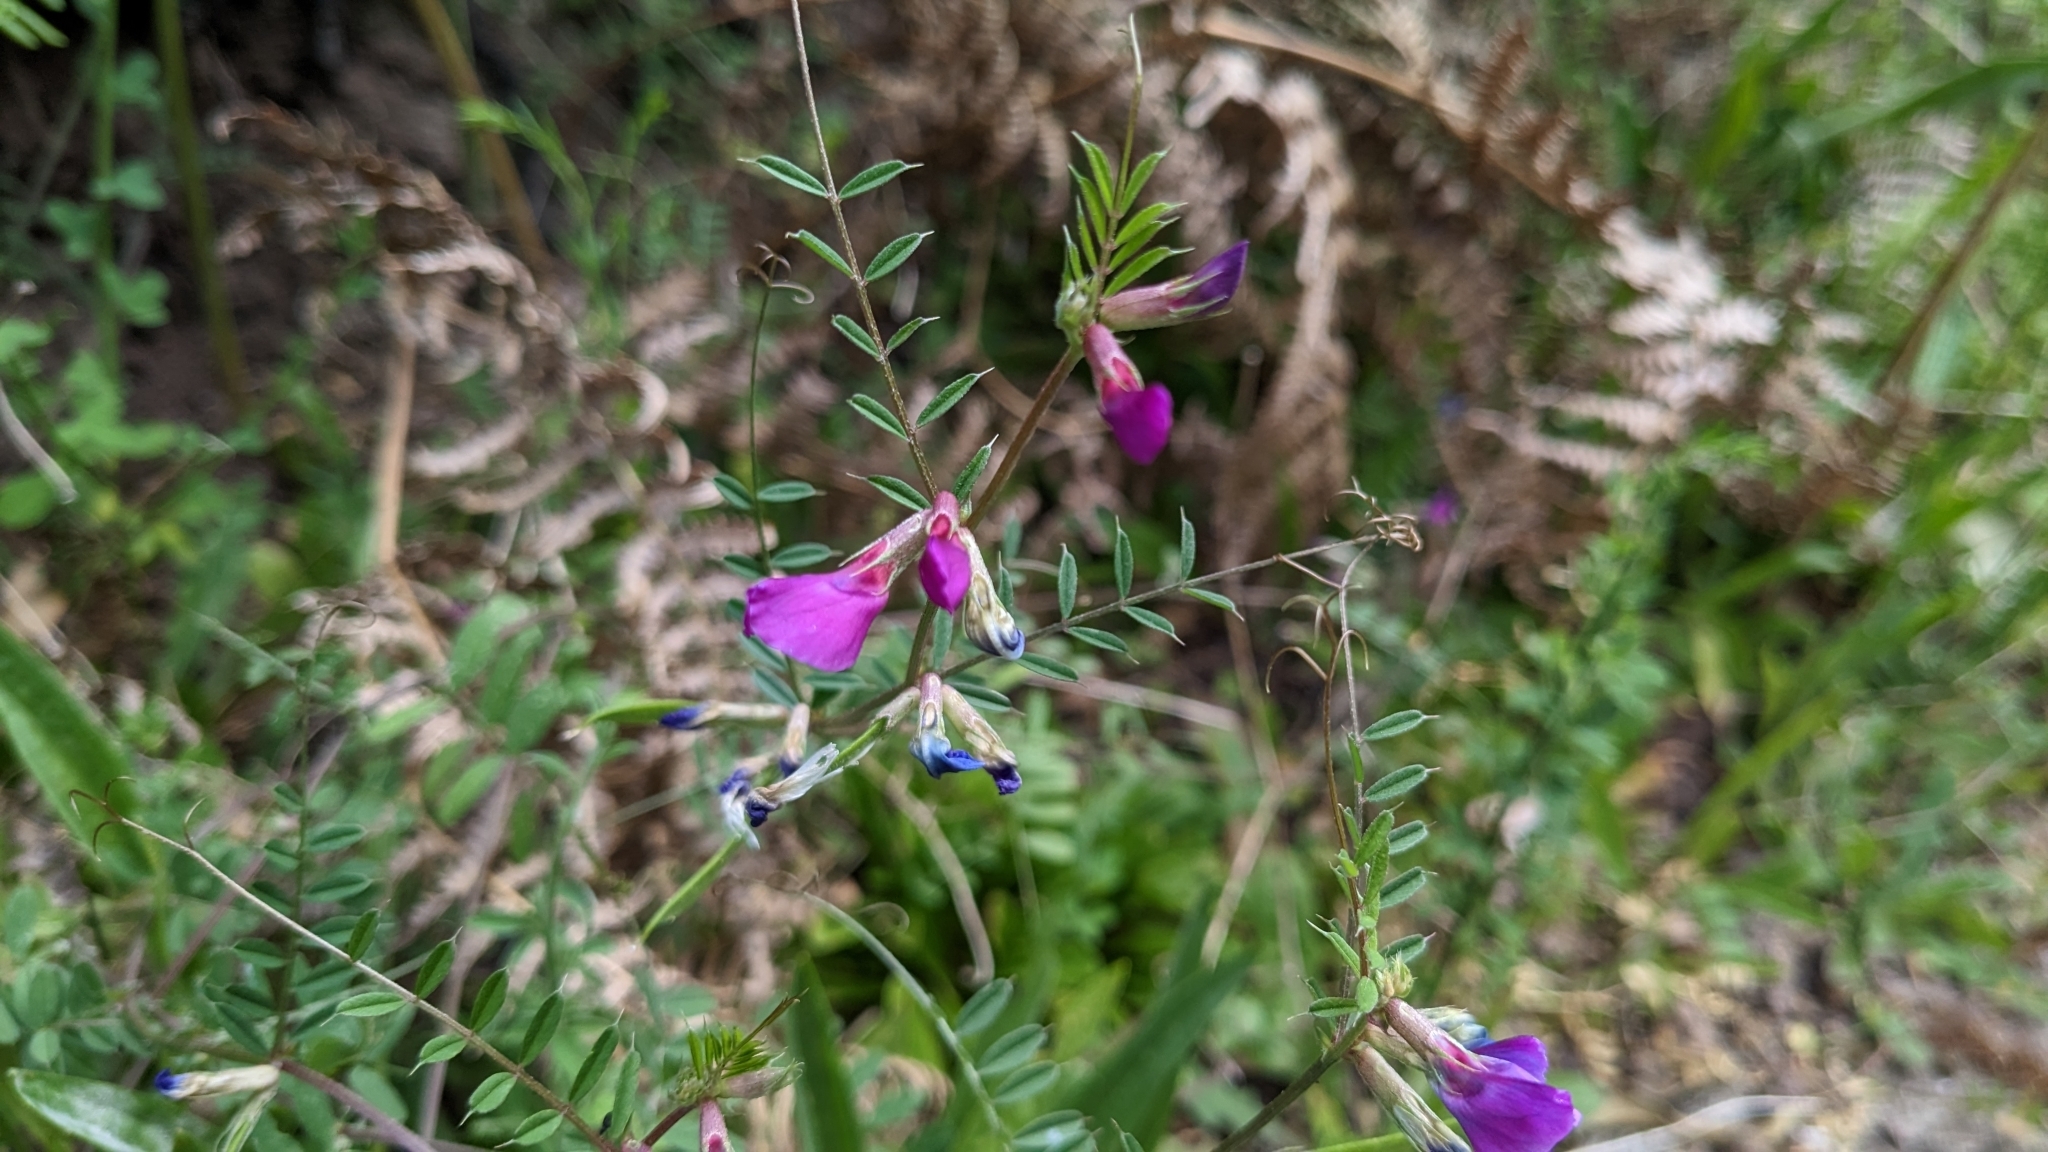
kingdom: Plantae
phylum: Tracheophyta
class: Magnoliopsida
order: Fabales
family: Fabaceae
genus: Vicia
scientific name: Vicia sativa
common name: Garden vetch
